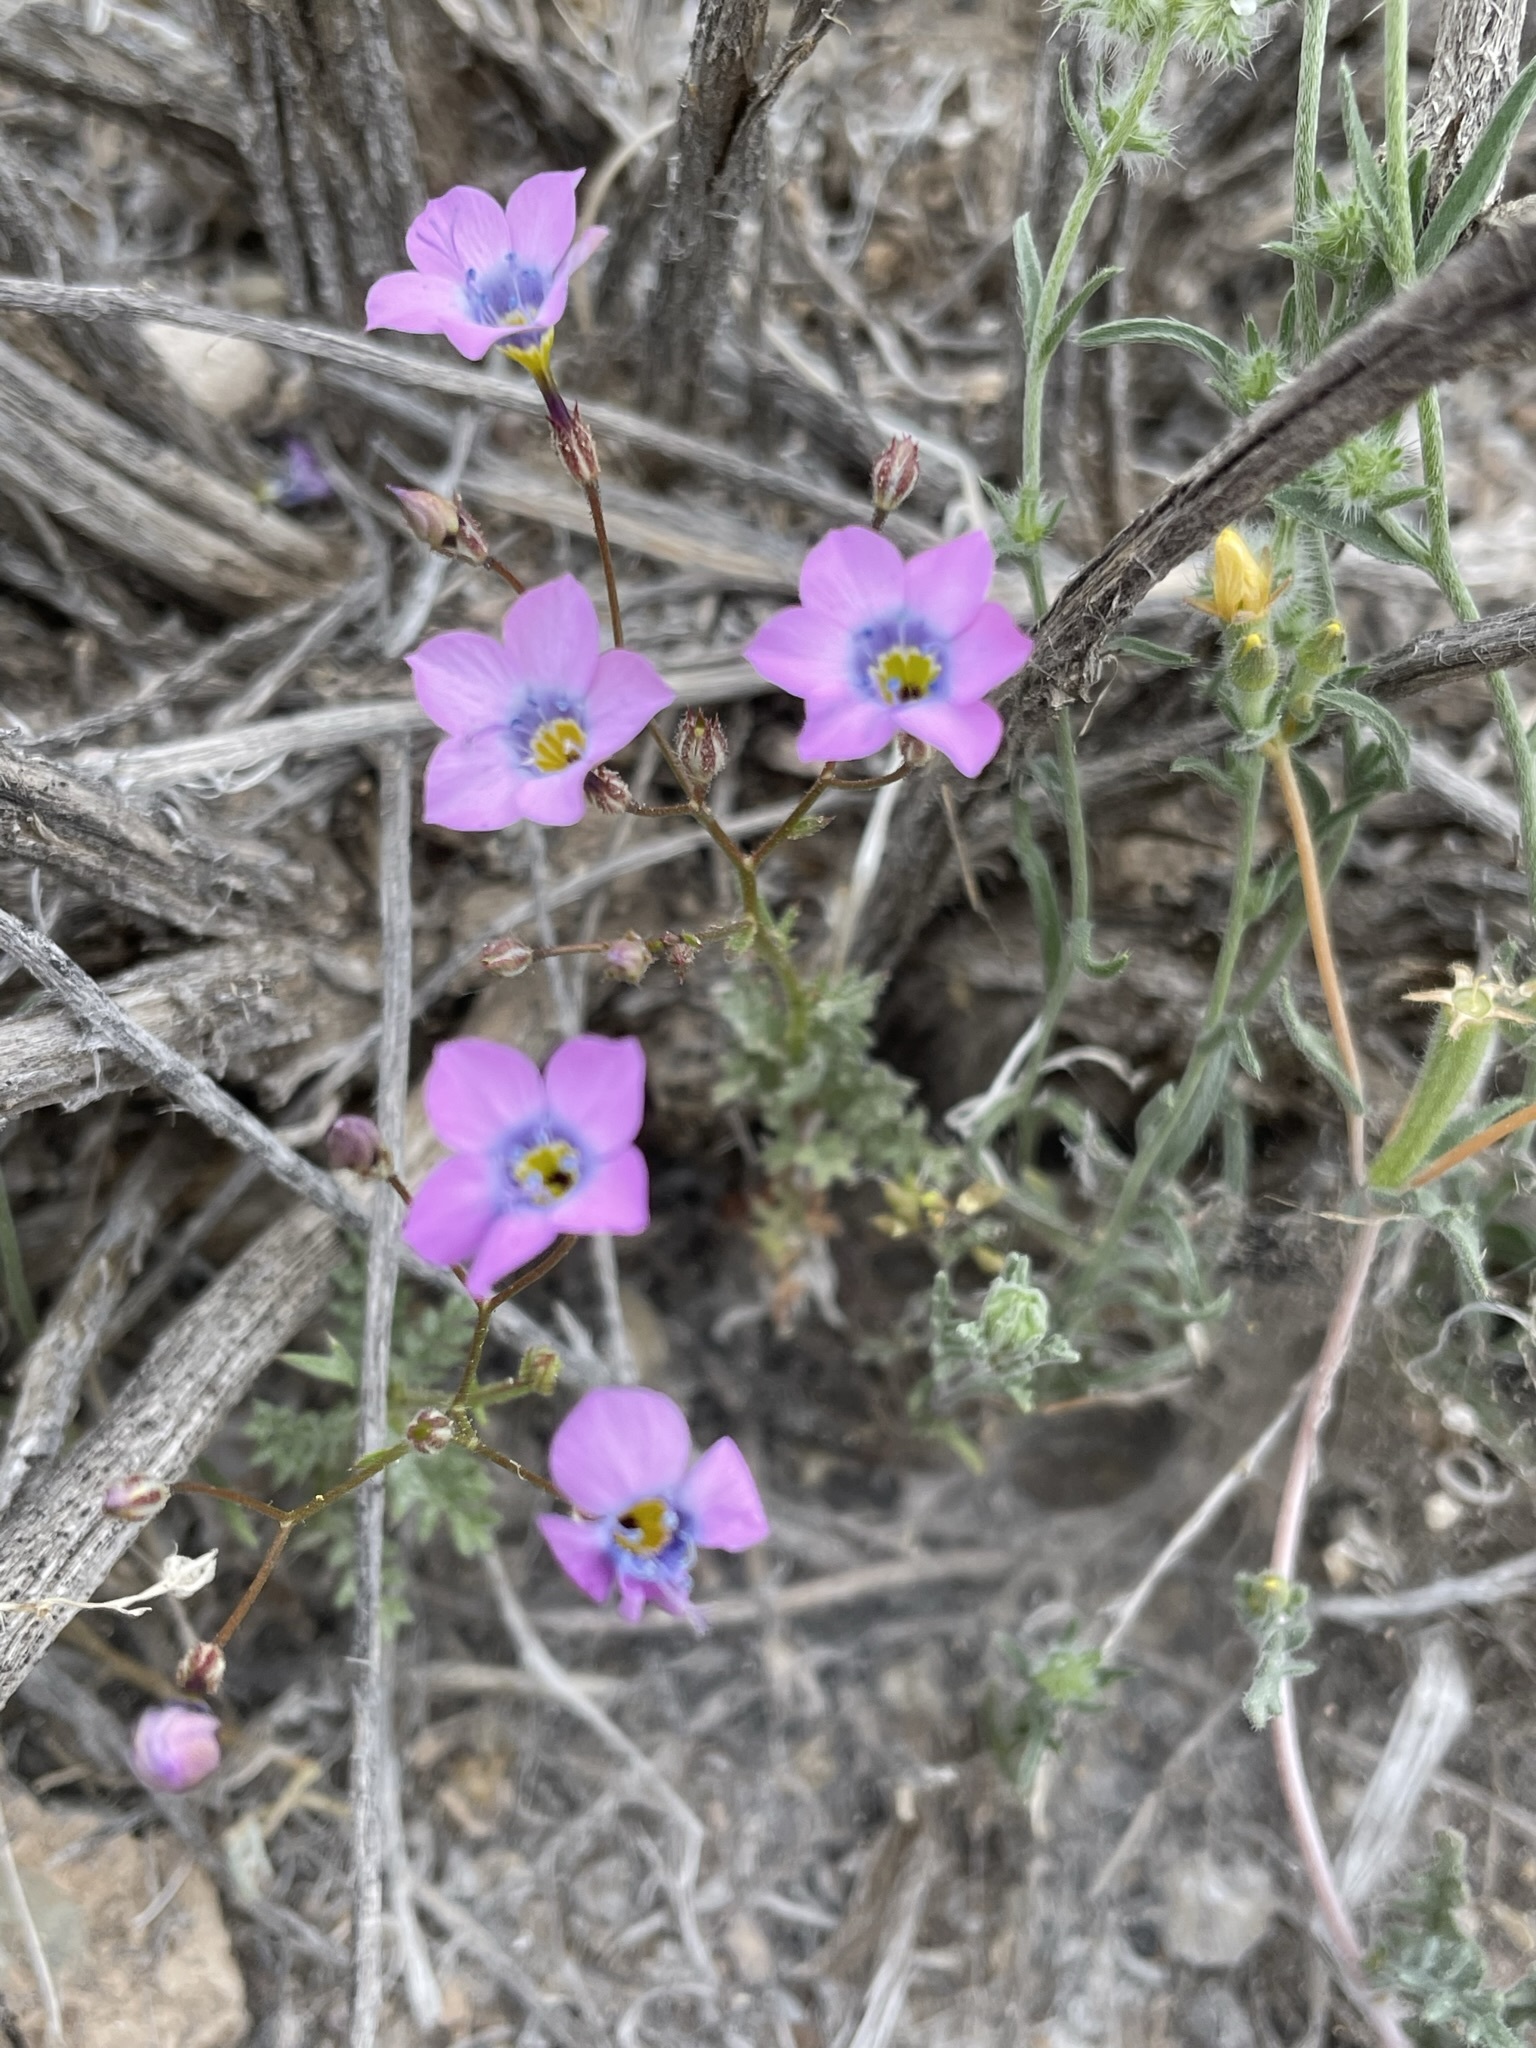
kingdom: Plantae
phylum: Tracheophyta
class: Magnoliopsida
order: Ericales
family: Polemoniaceae
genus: Gilia
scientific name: Gilia cana
